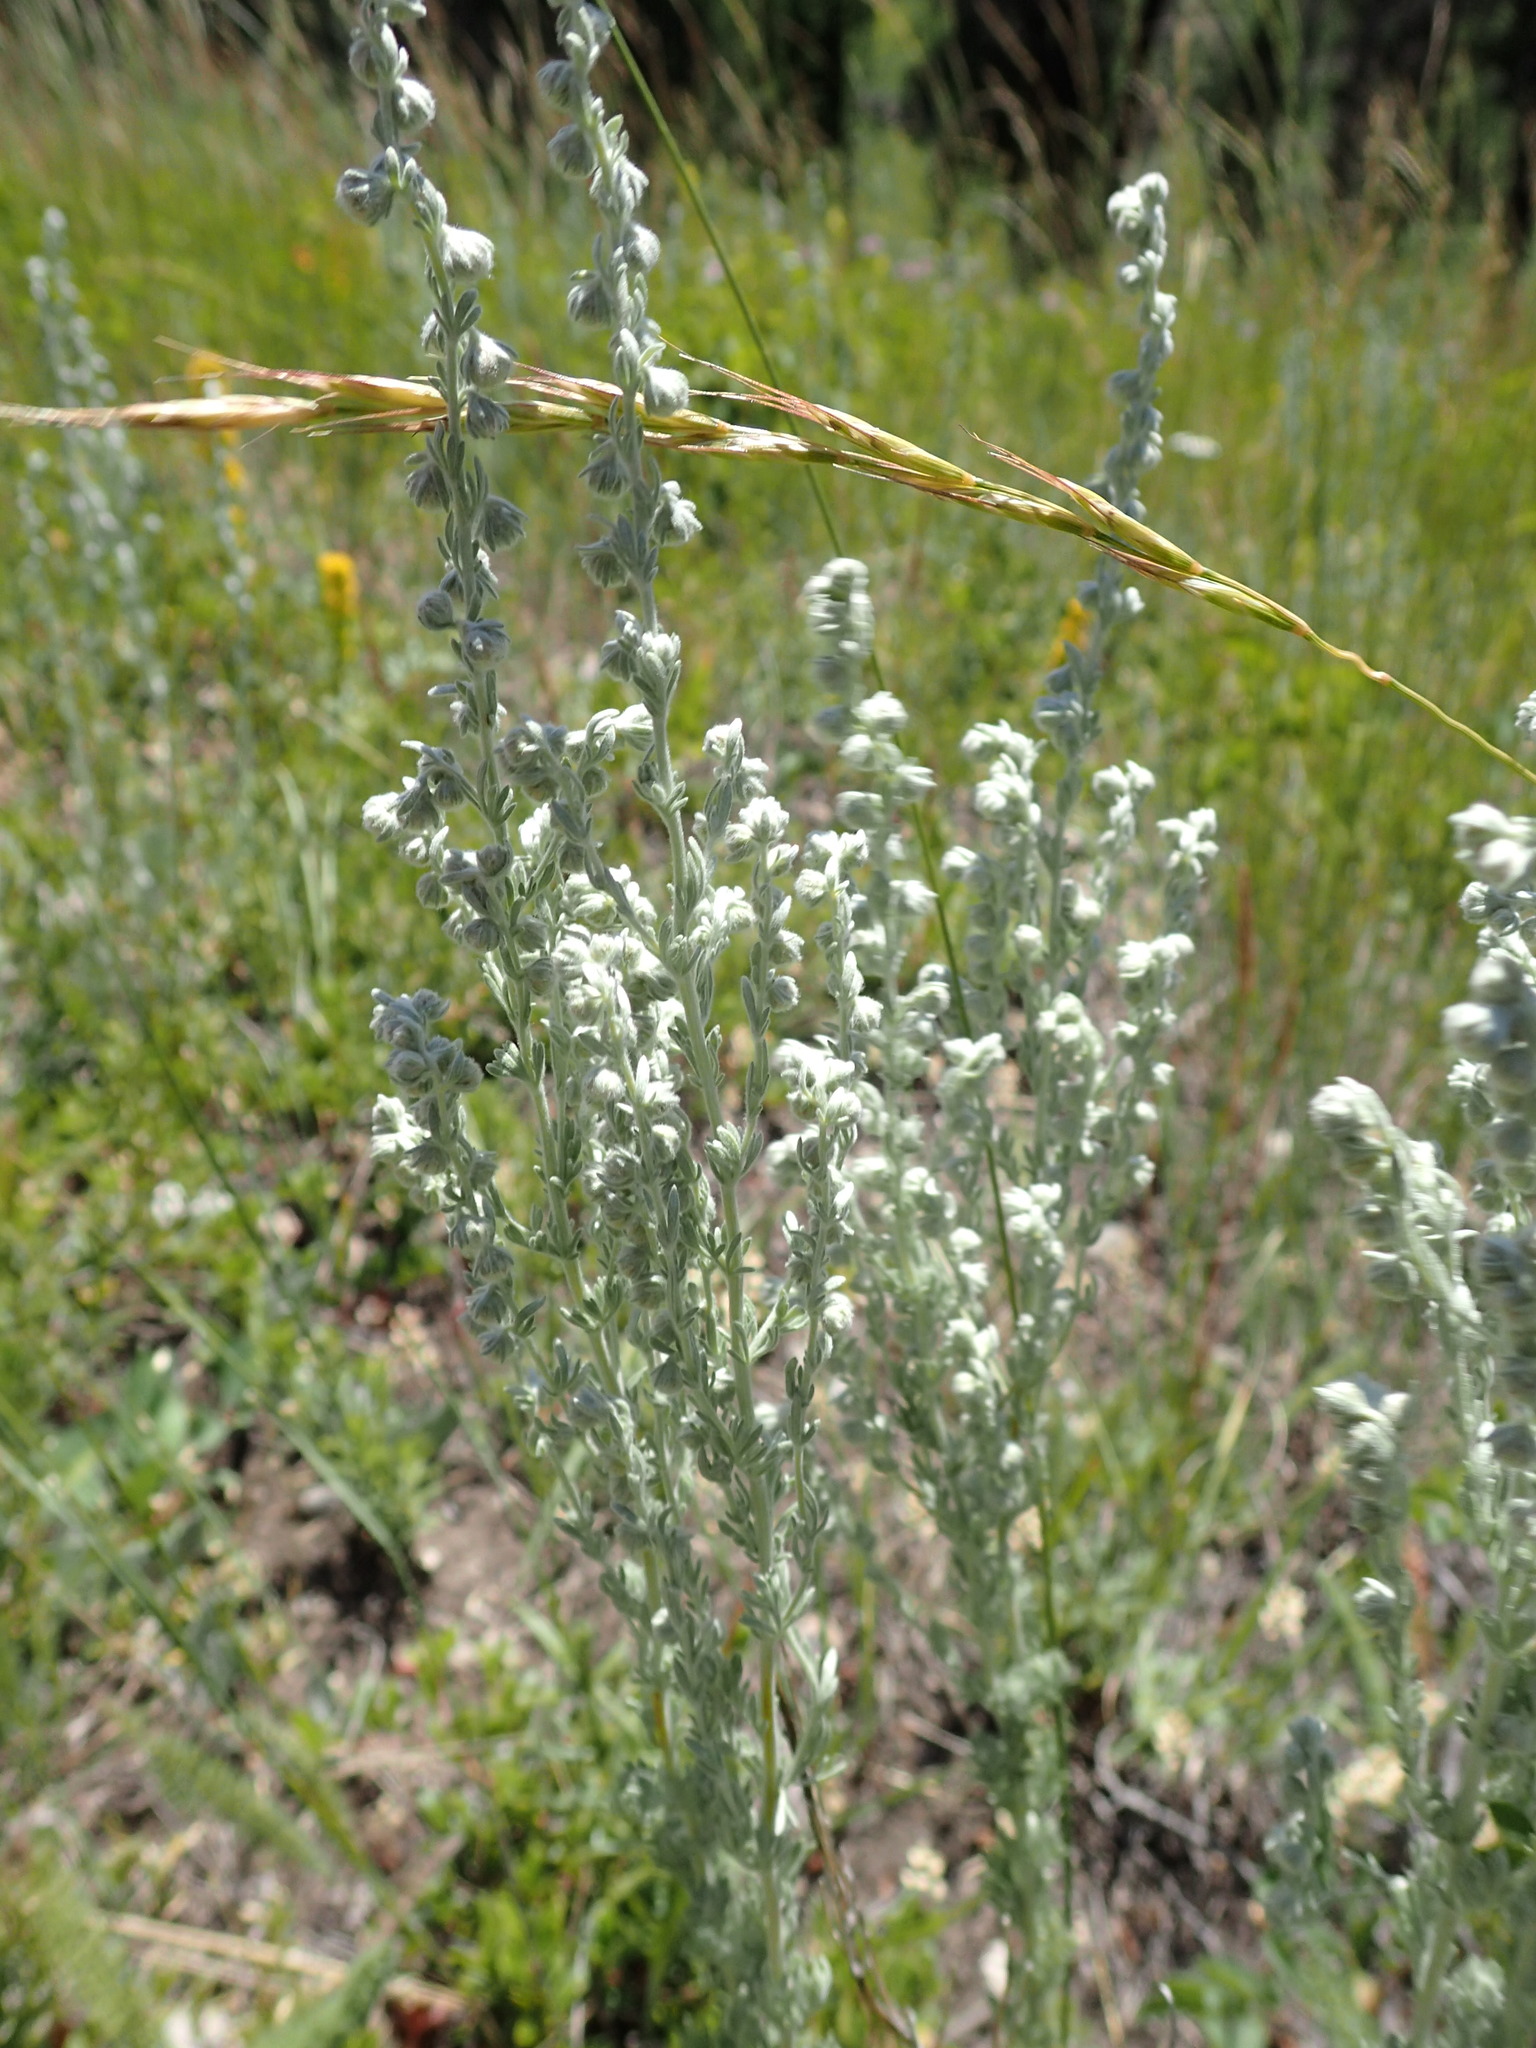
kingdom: Plantae
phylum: Tracheophyta
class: Magnoliopsida
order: Asterales
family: Asteraceae
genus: Artemisia
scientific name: Artemisia frigida
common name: Prairie sagewort
